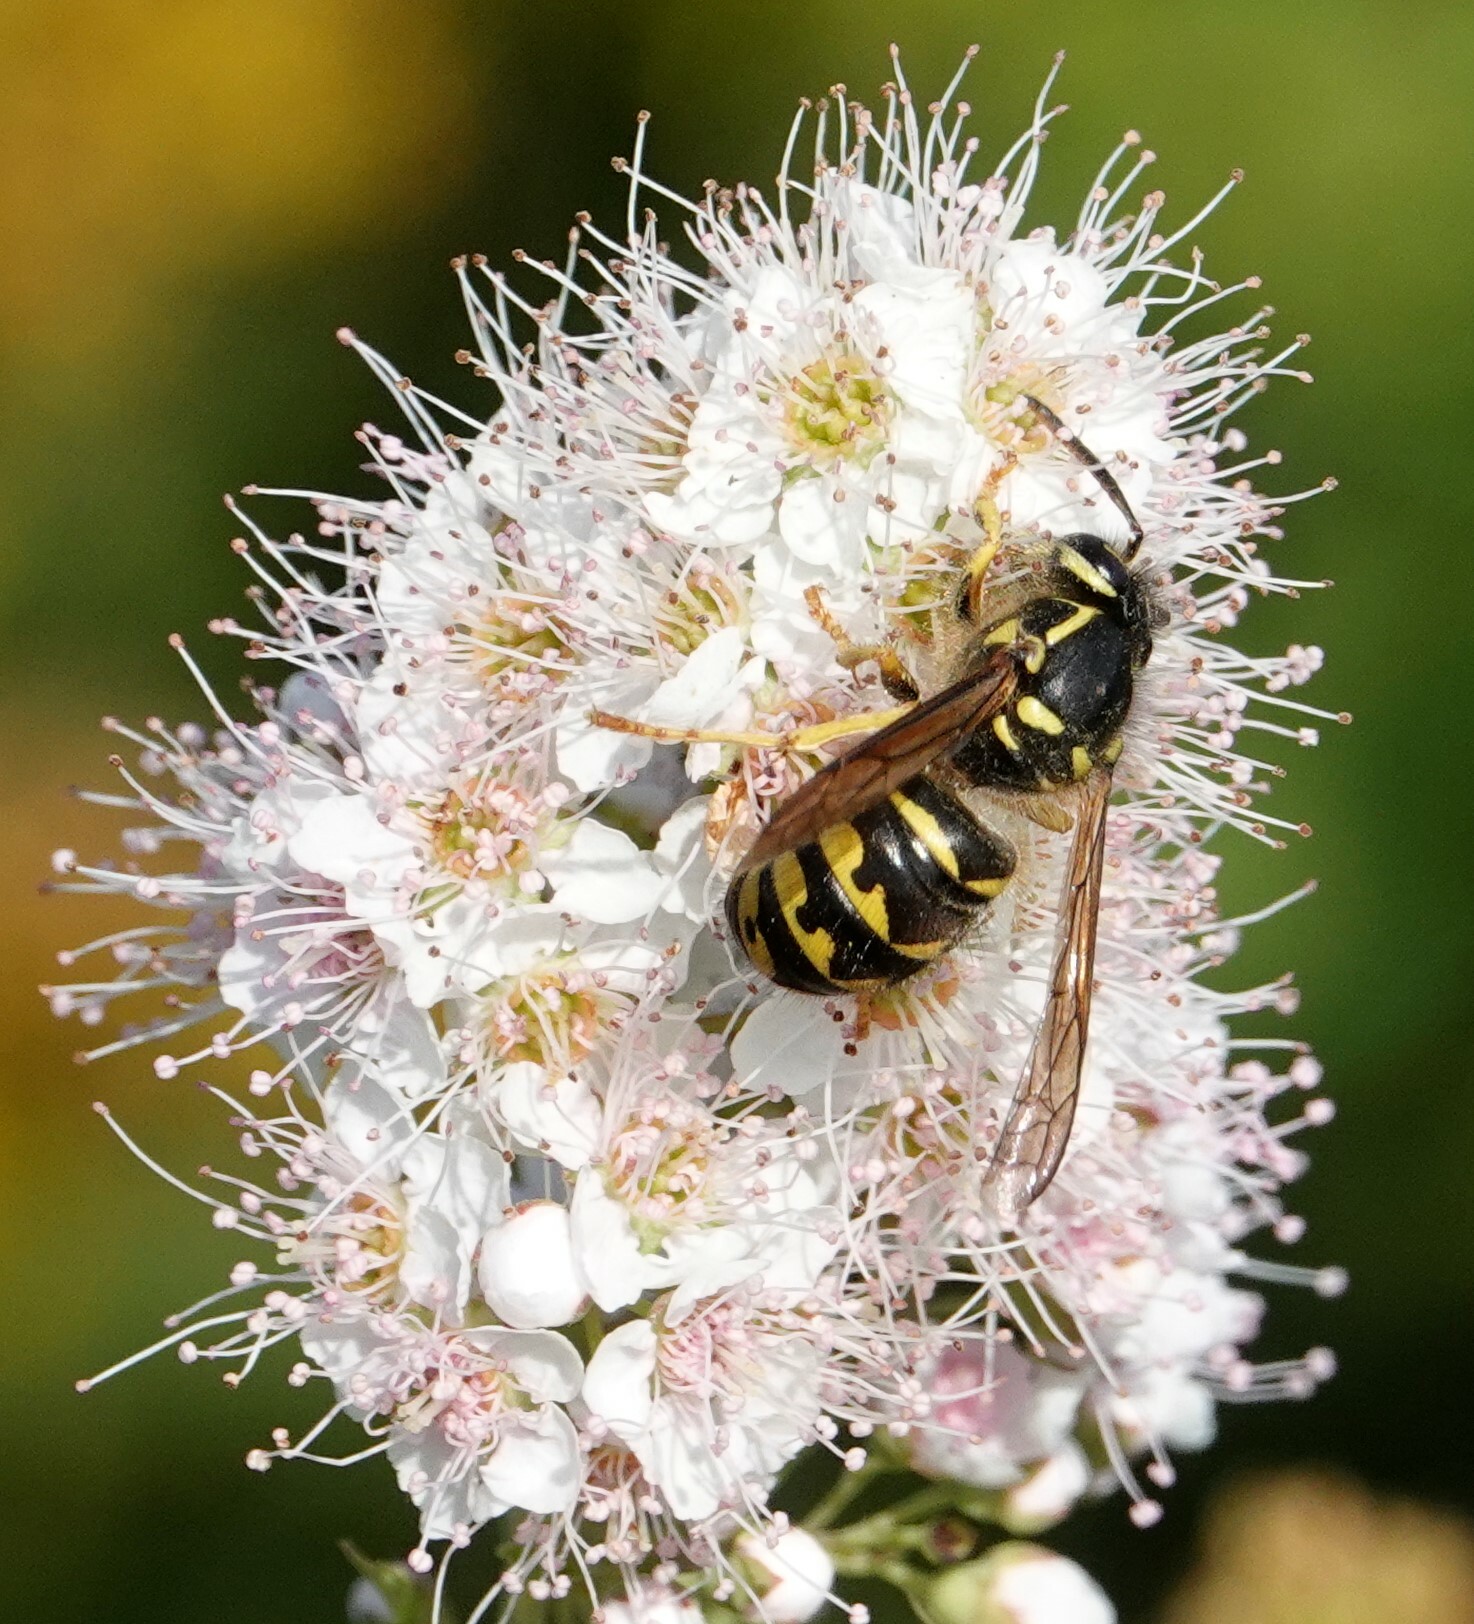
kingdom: Animalia
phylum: Arthropoda
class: Insecta
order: Hymenoptera
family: Vespidae
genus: Dolichovespula
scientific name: Dolichovespula arenaria
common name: Aerial yellowjacket
